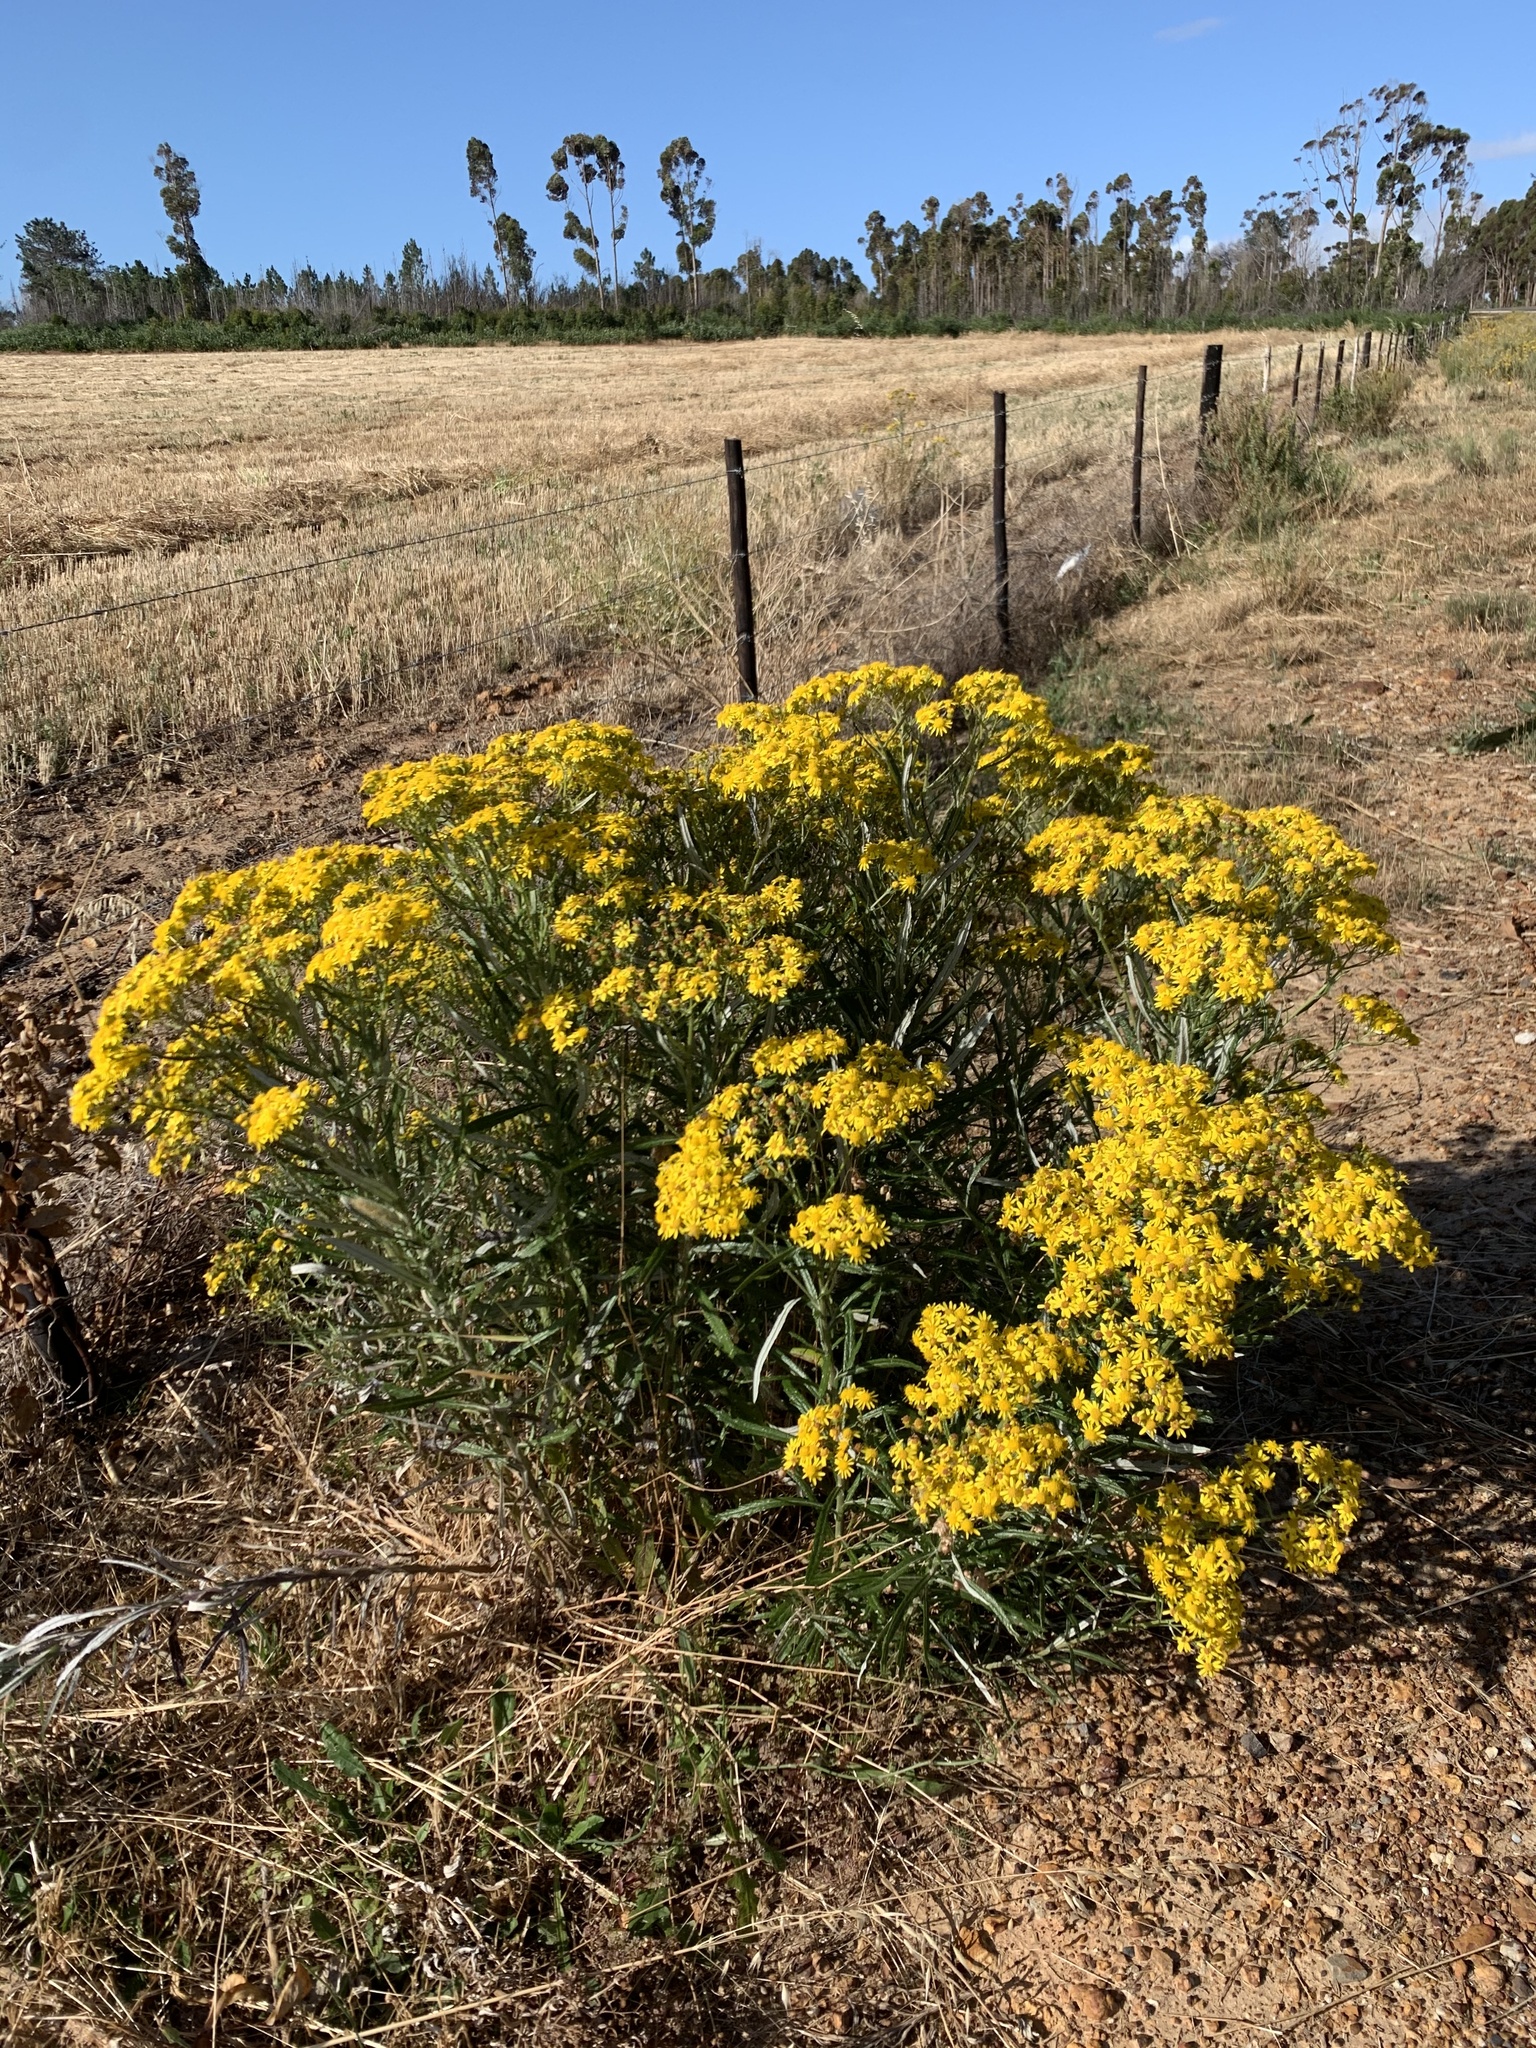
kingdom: Plantae
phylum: Tracheophyta
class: Magnoliopsida
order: Asterales
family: Asteraceae
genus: Senecio
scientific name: Senecio pterophorus
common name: Shoddy ragwort
